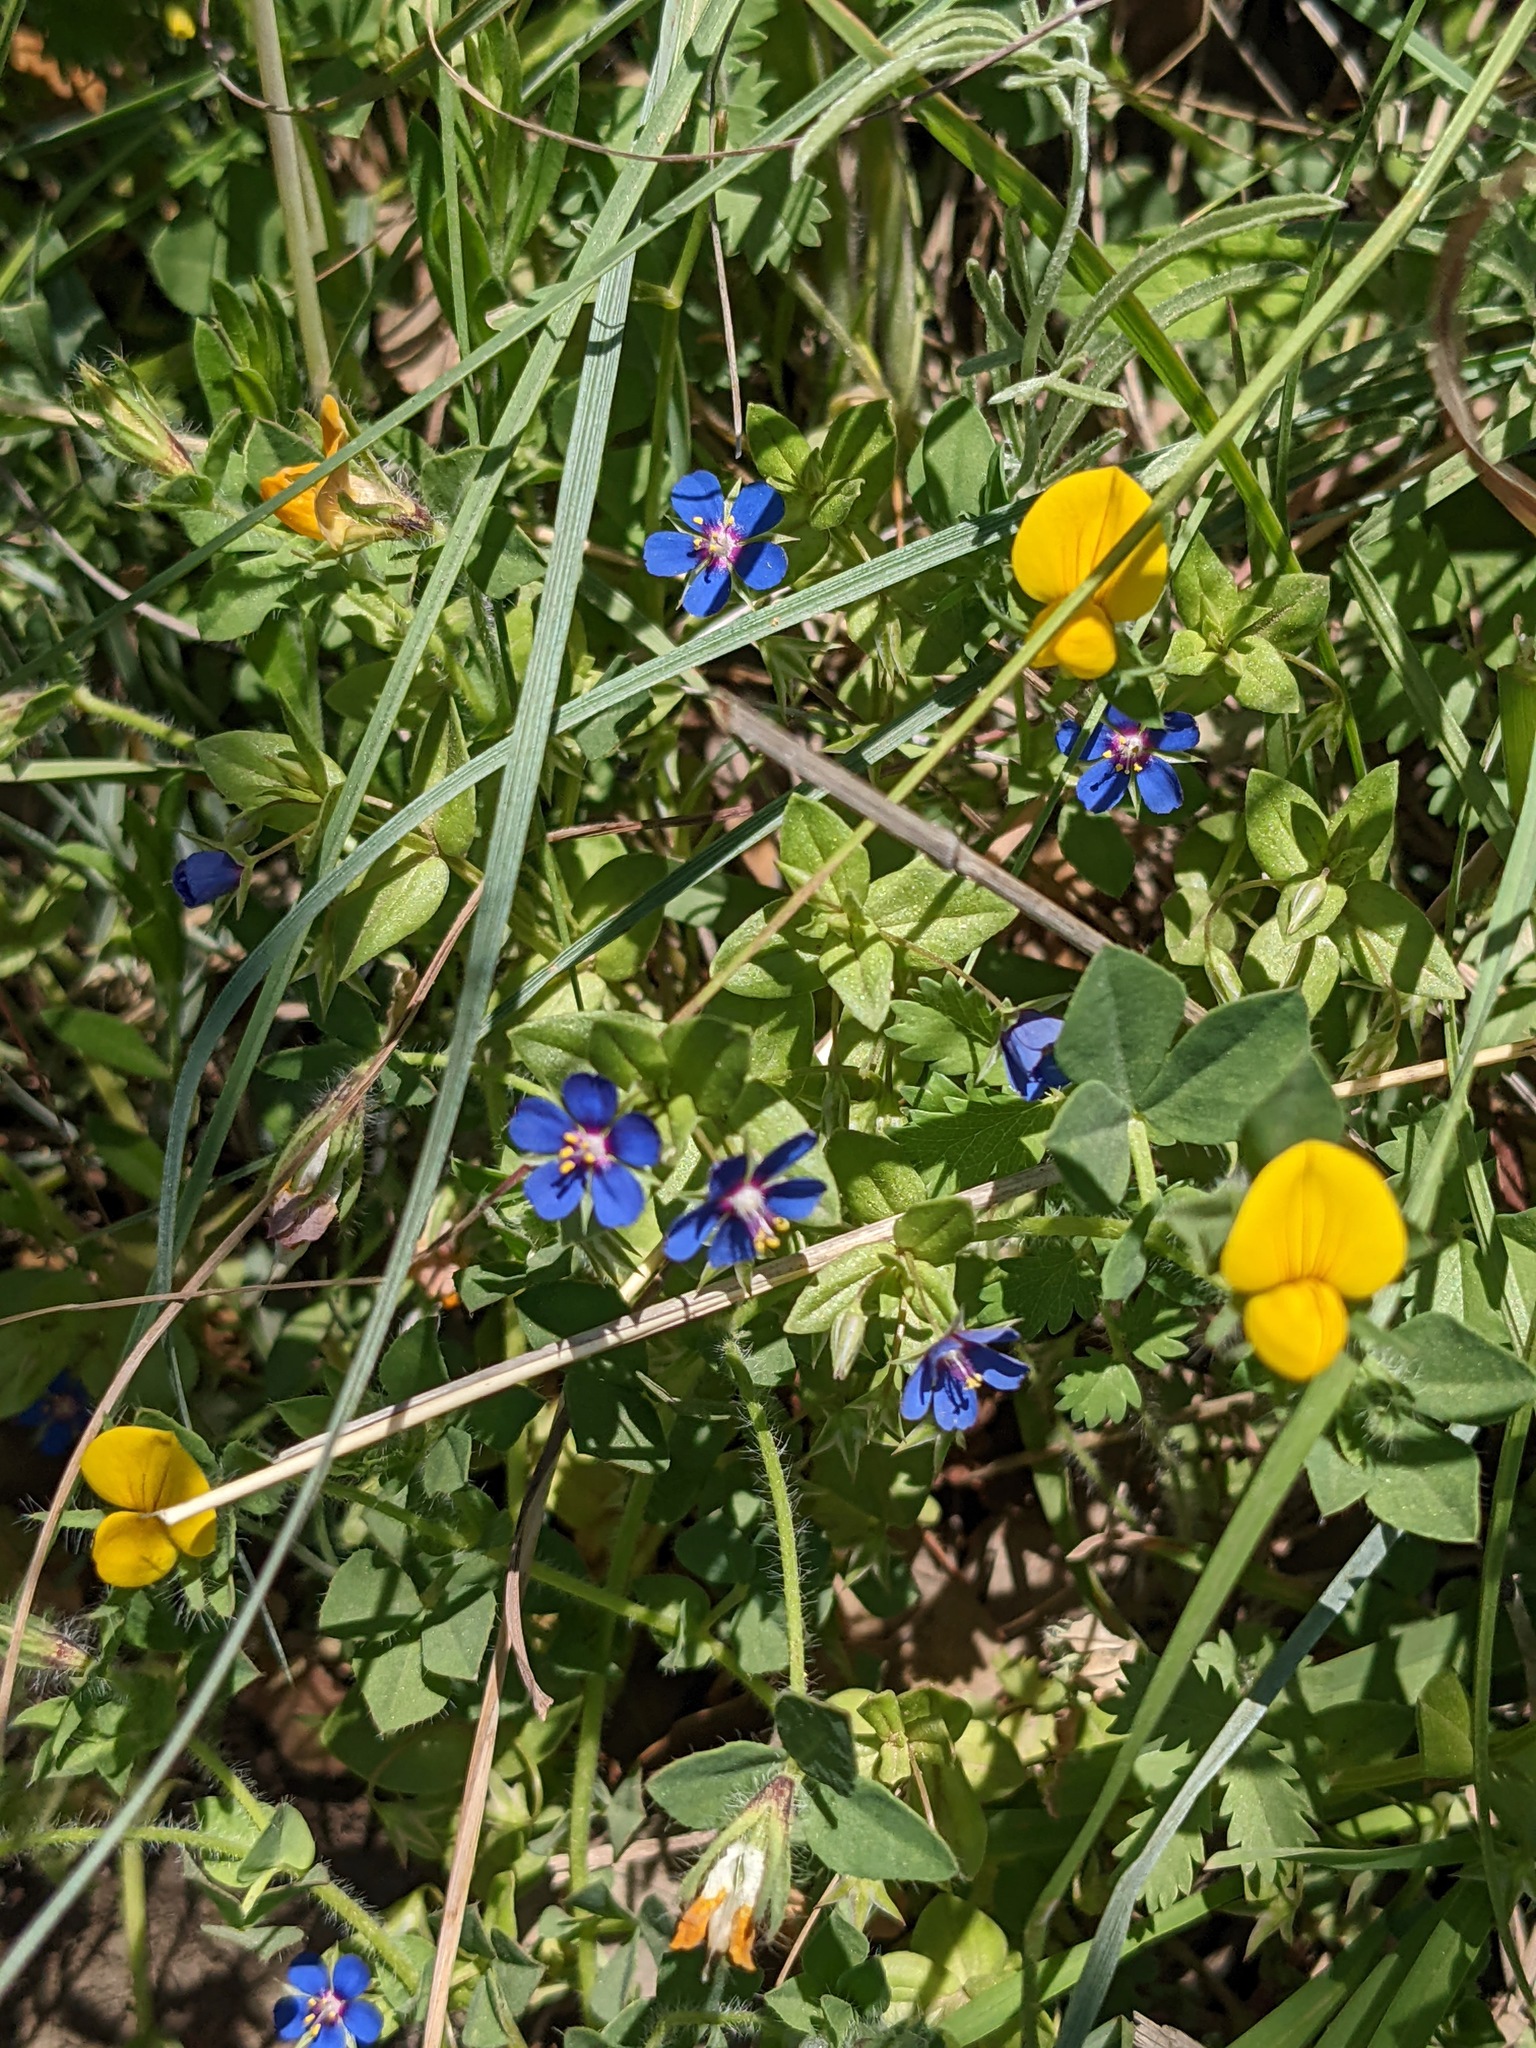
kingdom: Plantae
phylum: Tracheophyta
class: Magnoliopsida
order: Ericales
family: Primulaceae
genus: Lysimachia
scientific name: Lysimachia foemina
